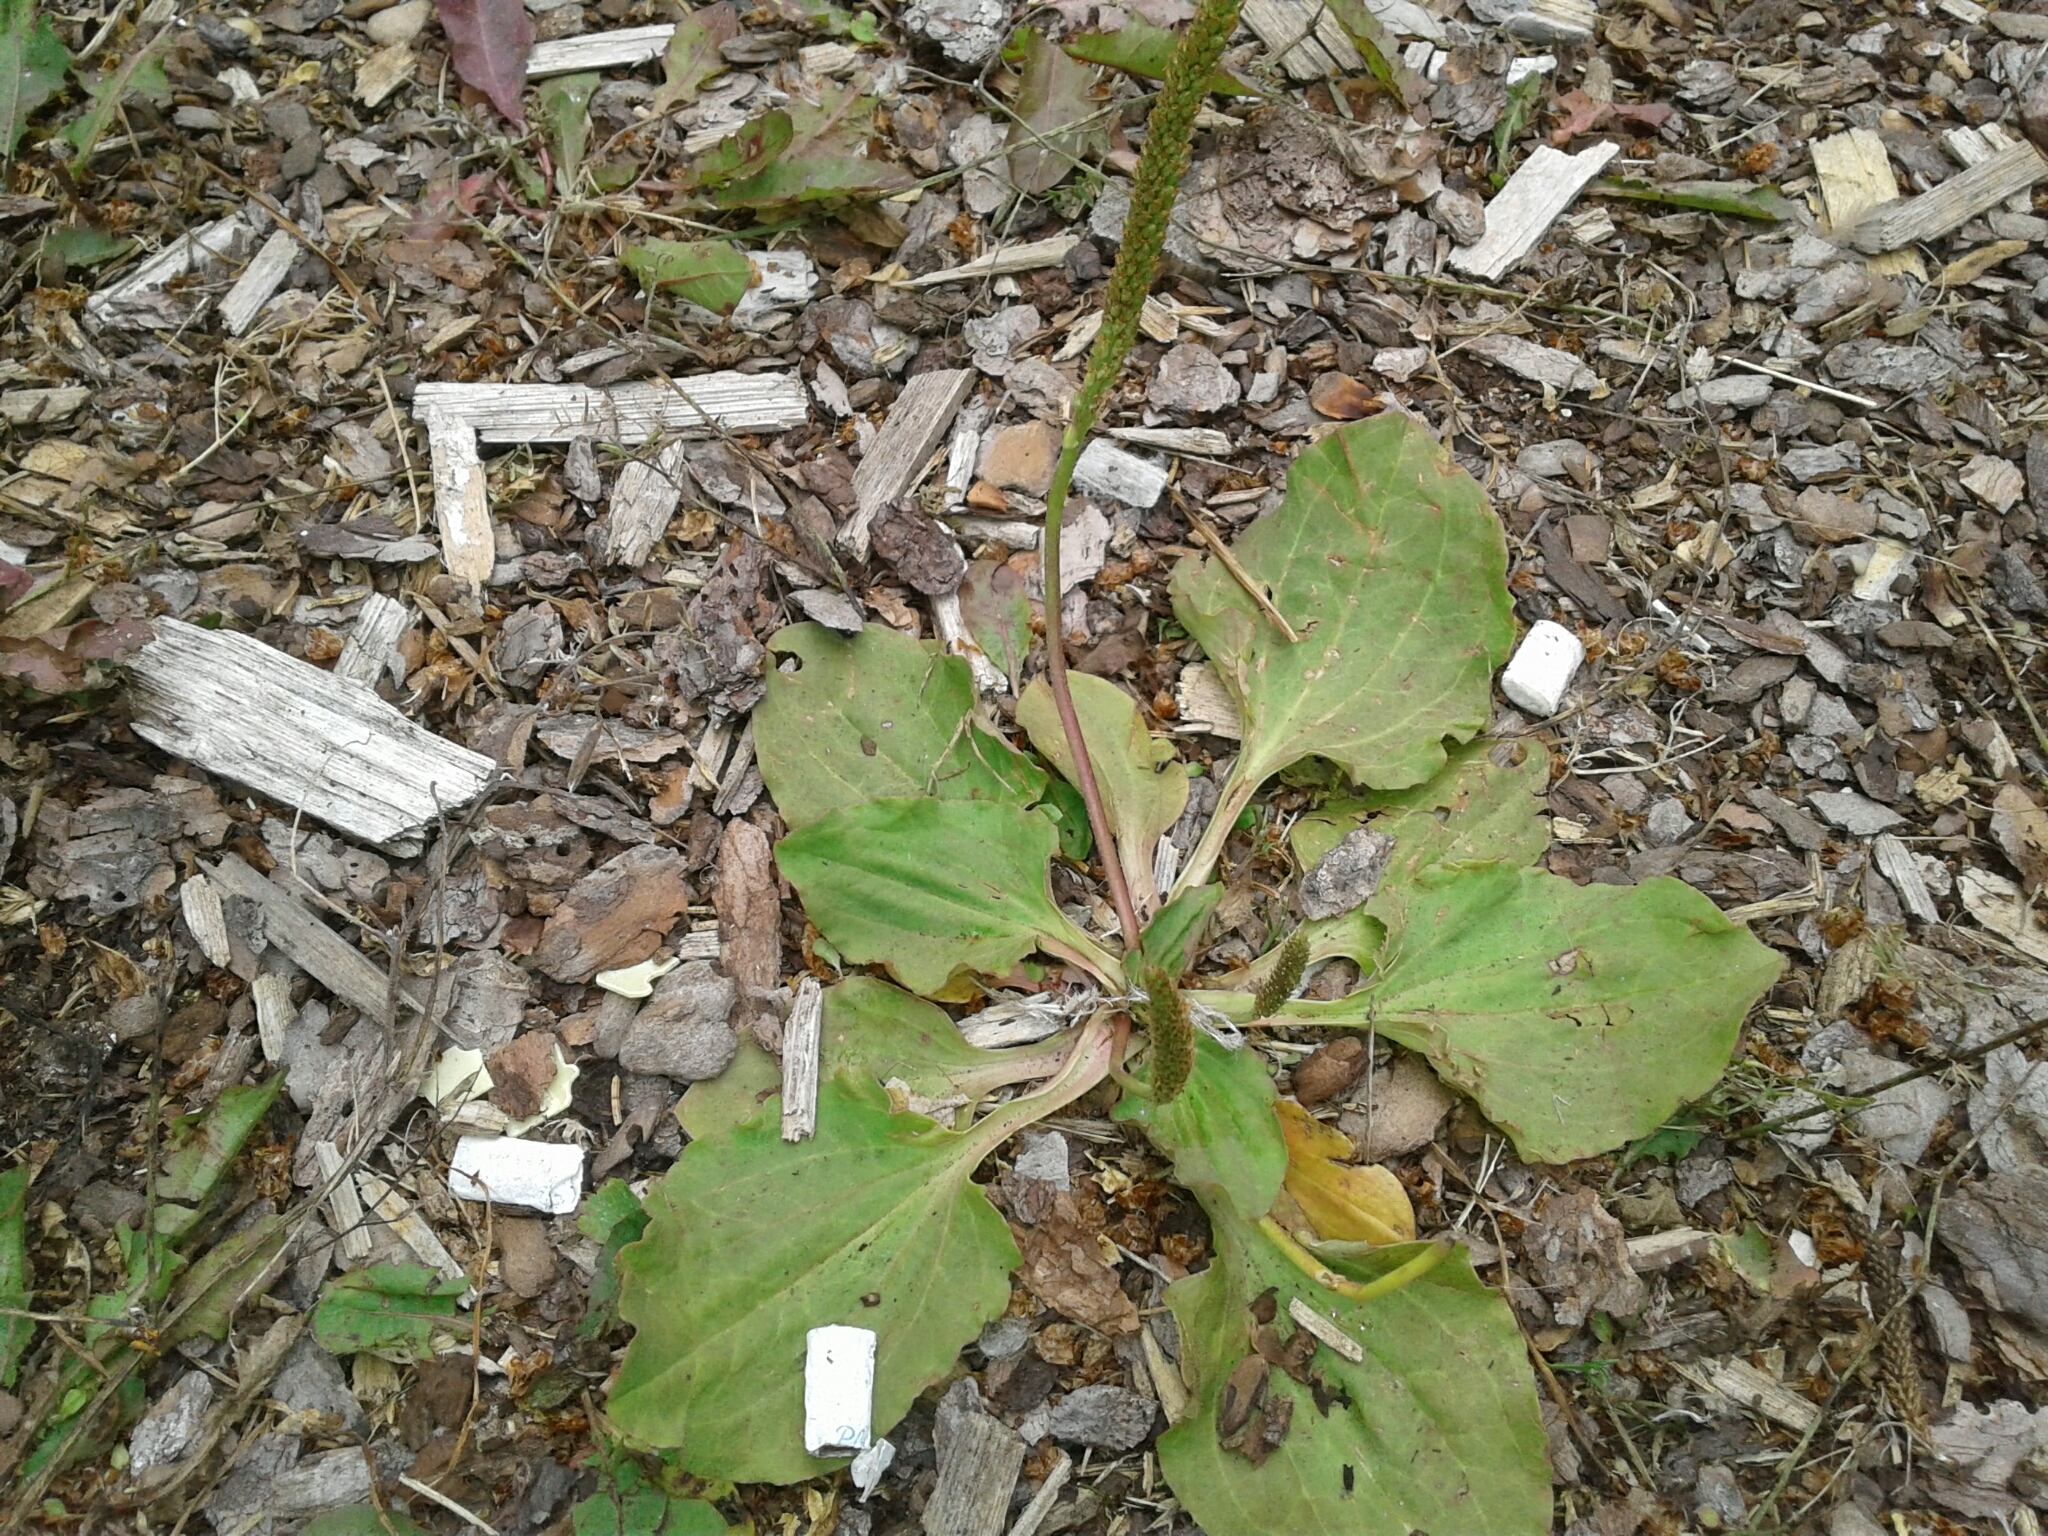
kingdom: Plantae
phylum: Tracheophyta
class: Magnoliopsida
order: Lamiales
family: Plantaginaceae
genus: Plantago
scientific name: Plantago major
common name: Common plantain
